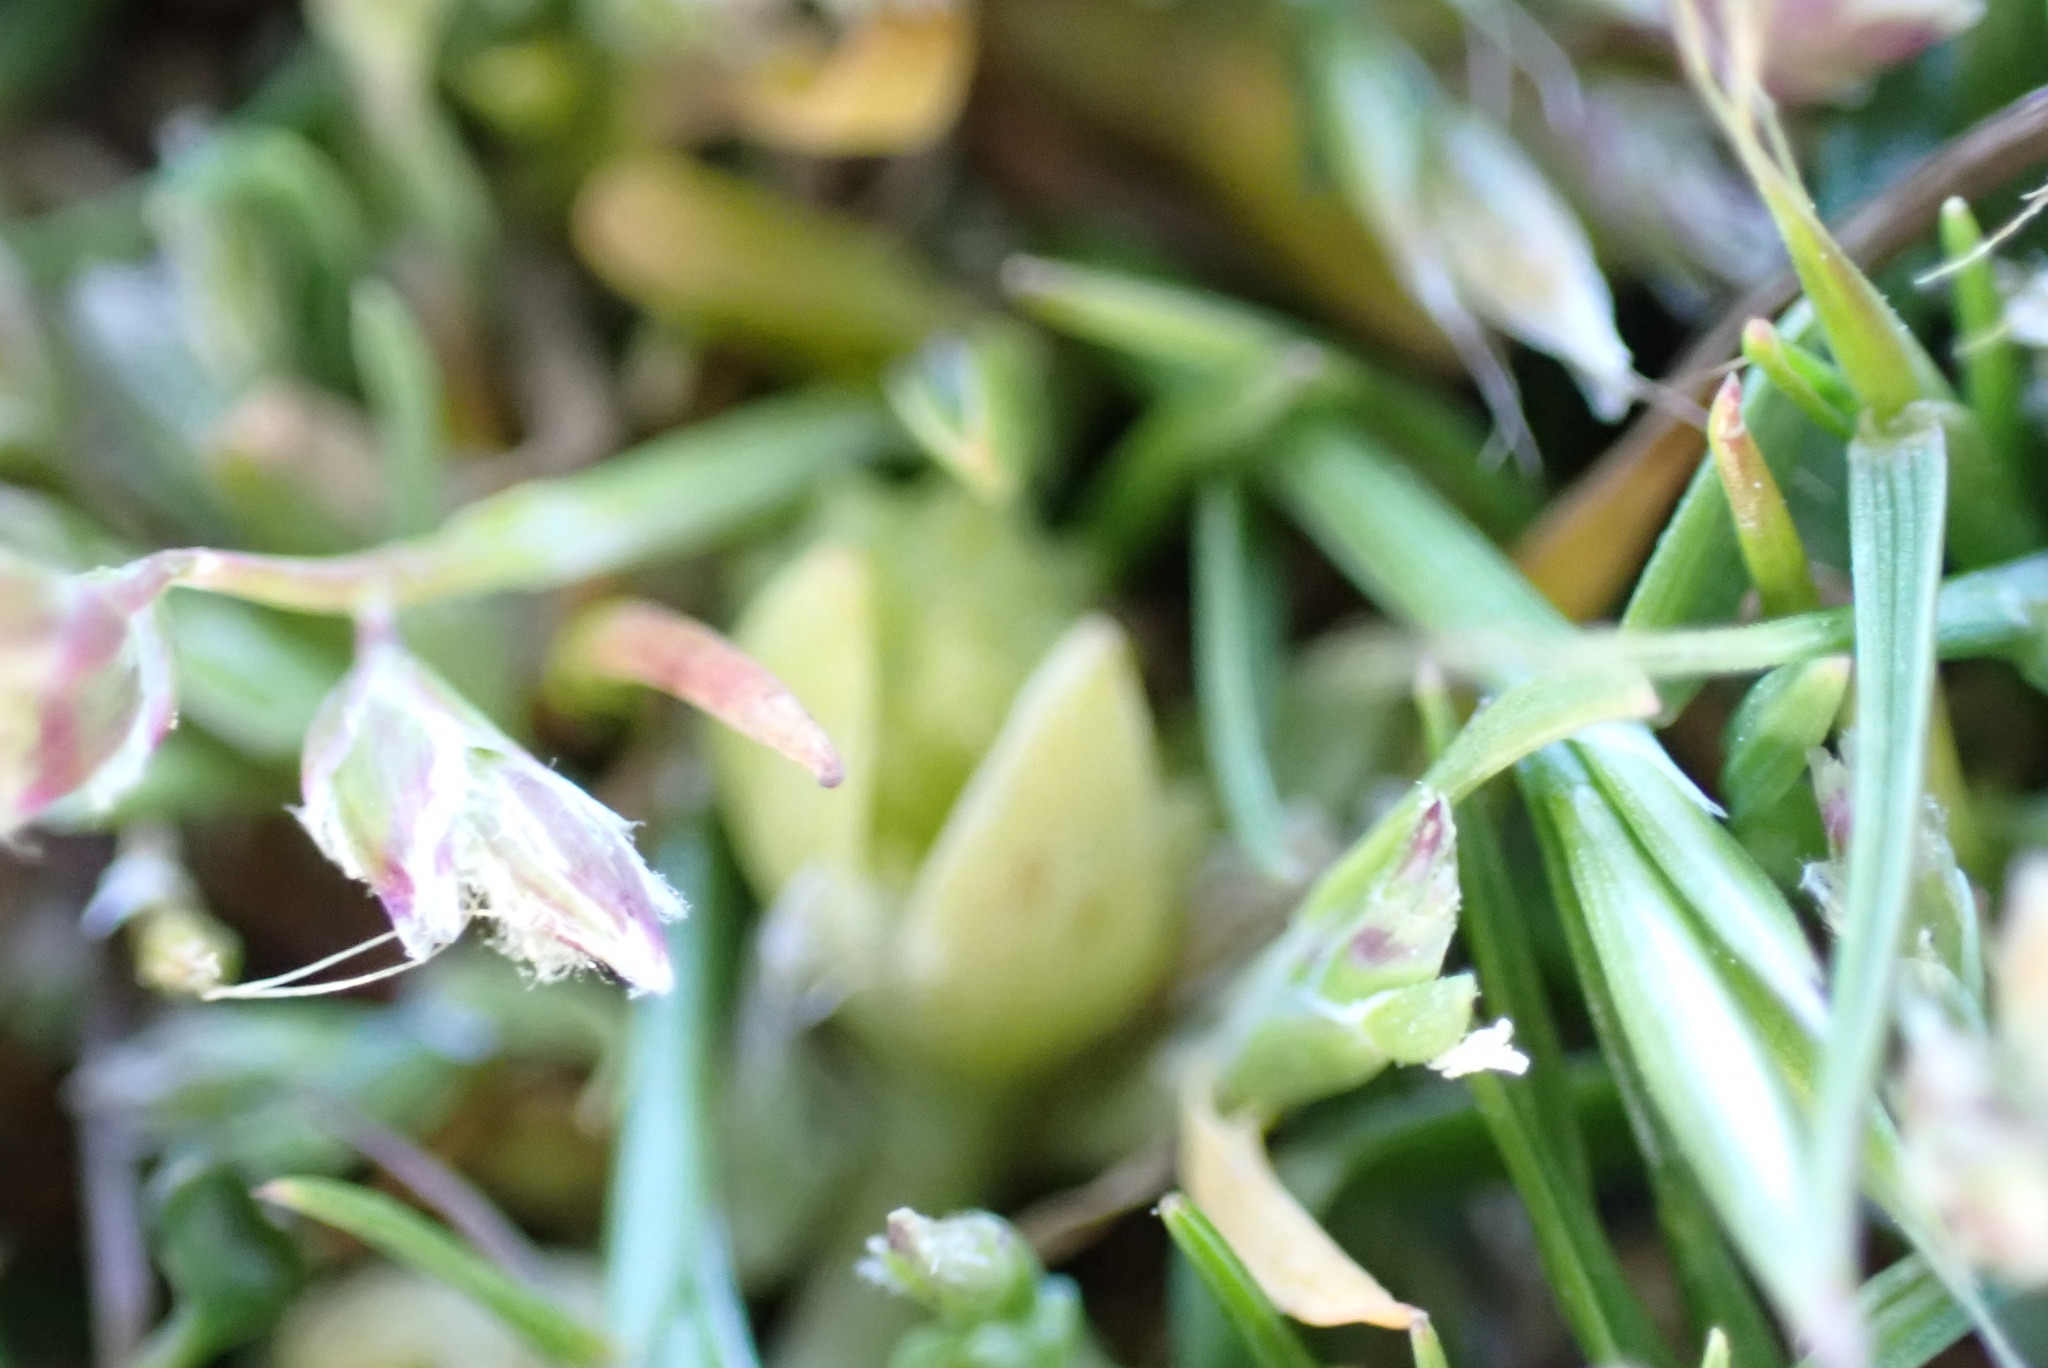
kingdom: Plantae
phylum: Tracheophyta
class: Magnoliopsida
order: Brassicales
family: Limnanthaceae
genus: Limnanthes
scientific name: Limnanthes macounii
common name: Macoun's meadowfoam
